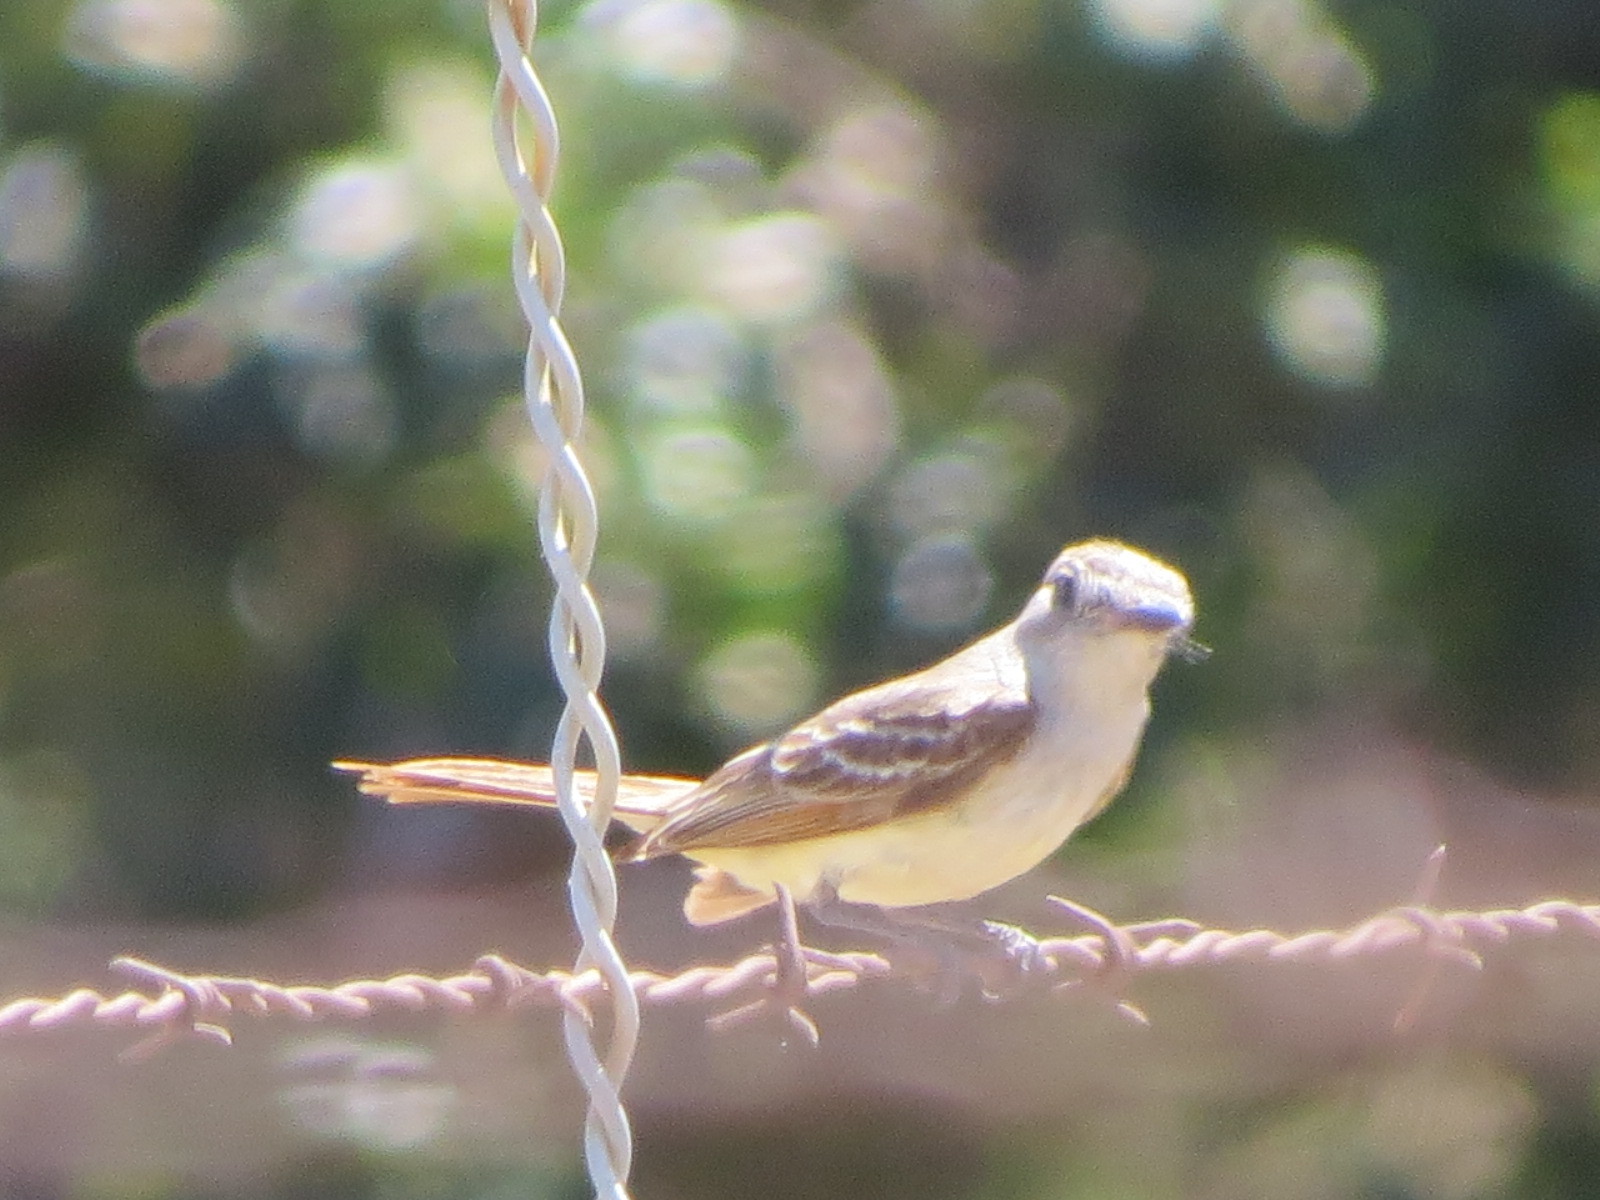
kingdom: Animalia
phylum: Chordata
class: Aves
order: Passeriformes
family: Tyrannidae
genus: Myiarchus
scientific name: Myiarchus cinerascens
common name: Ash-throated flycatcher
